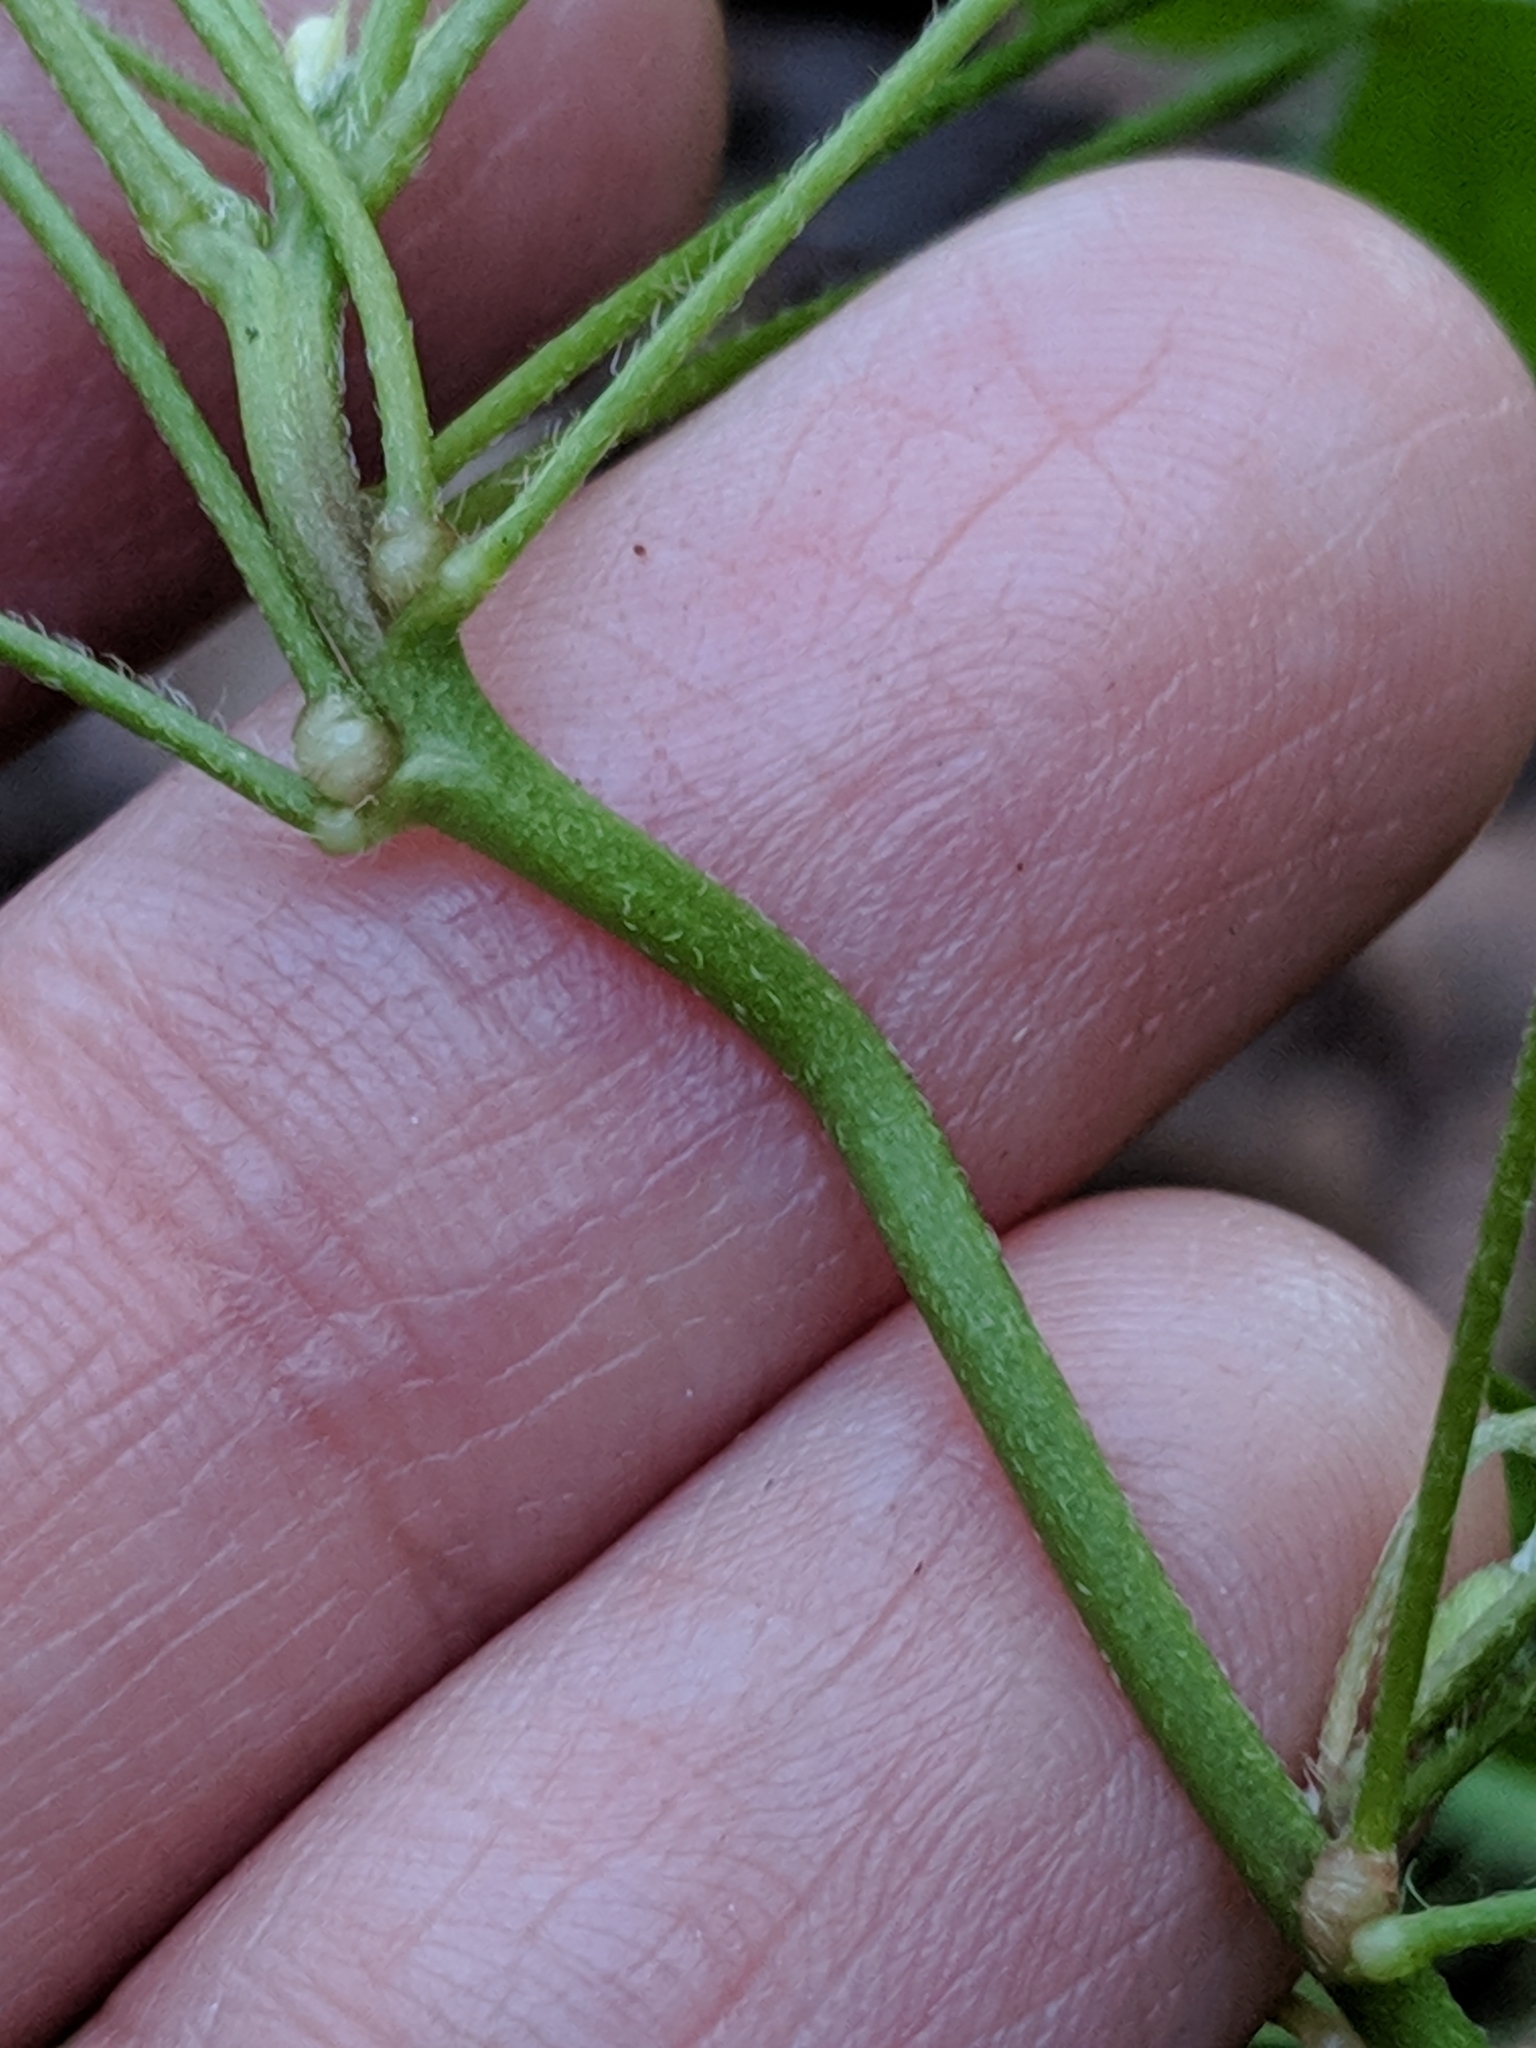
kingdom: Plantae
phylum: Tracheophyta
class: Magnoliopsida
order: Oxalidales
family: Oxalidaceae
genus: Oxalis
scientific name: Oxalis dillenii
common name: Sussex yellow-sorrel
